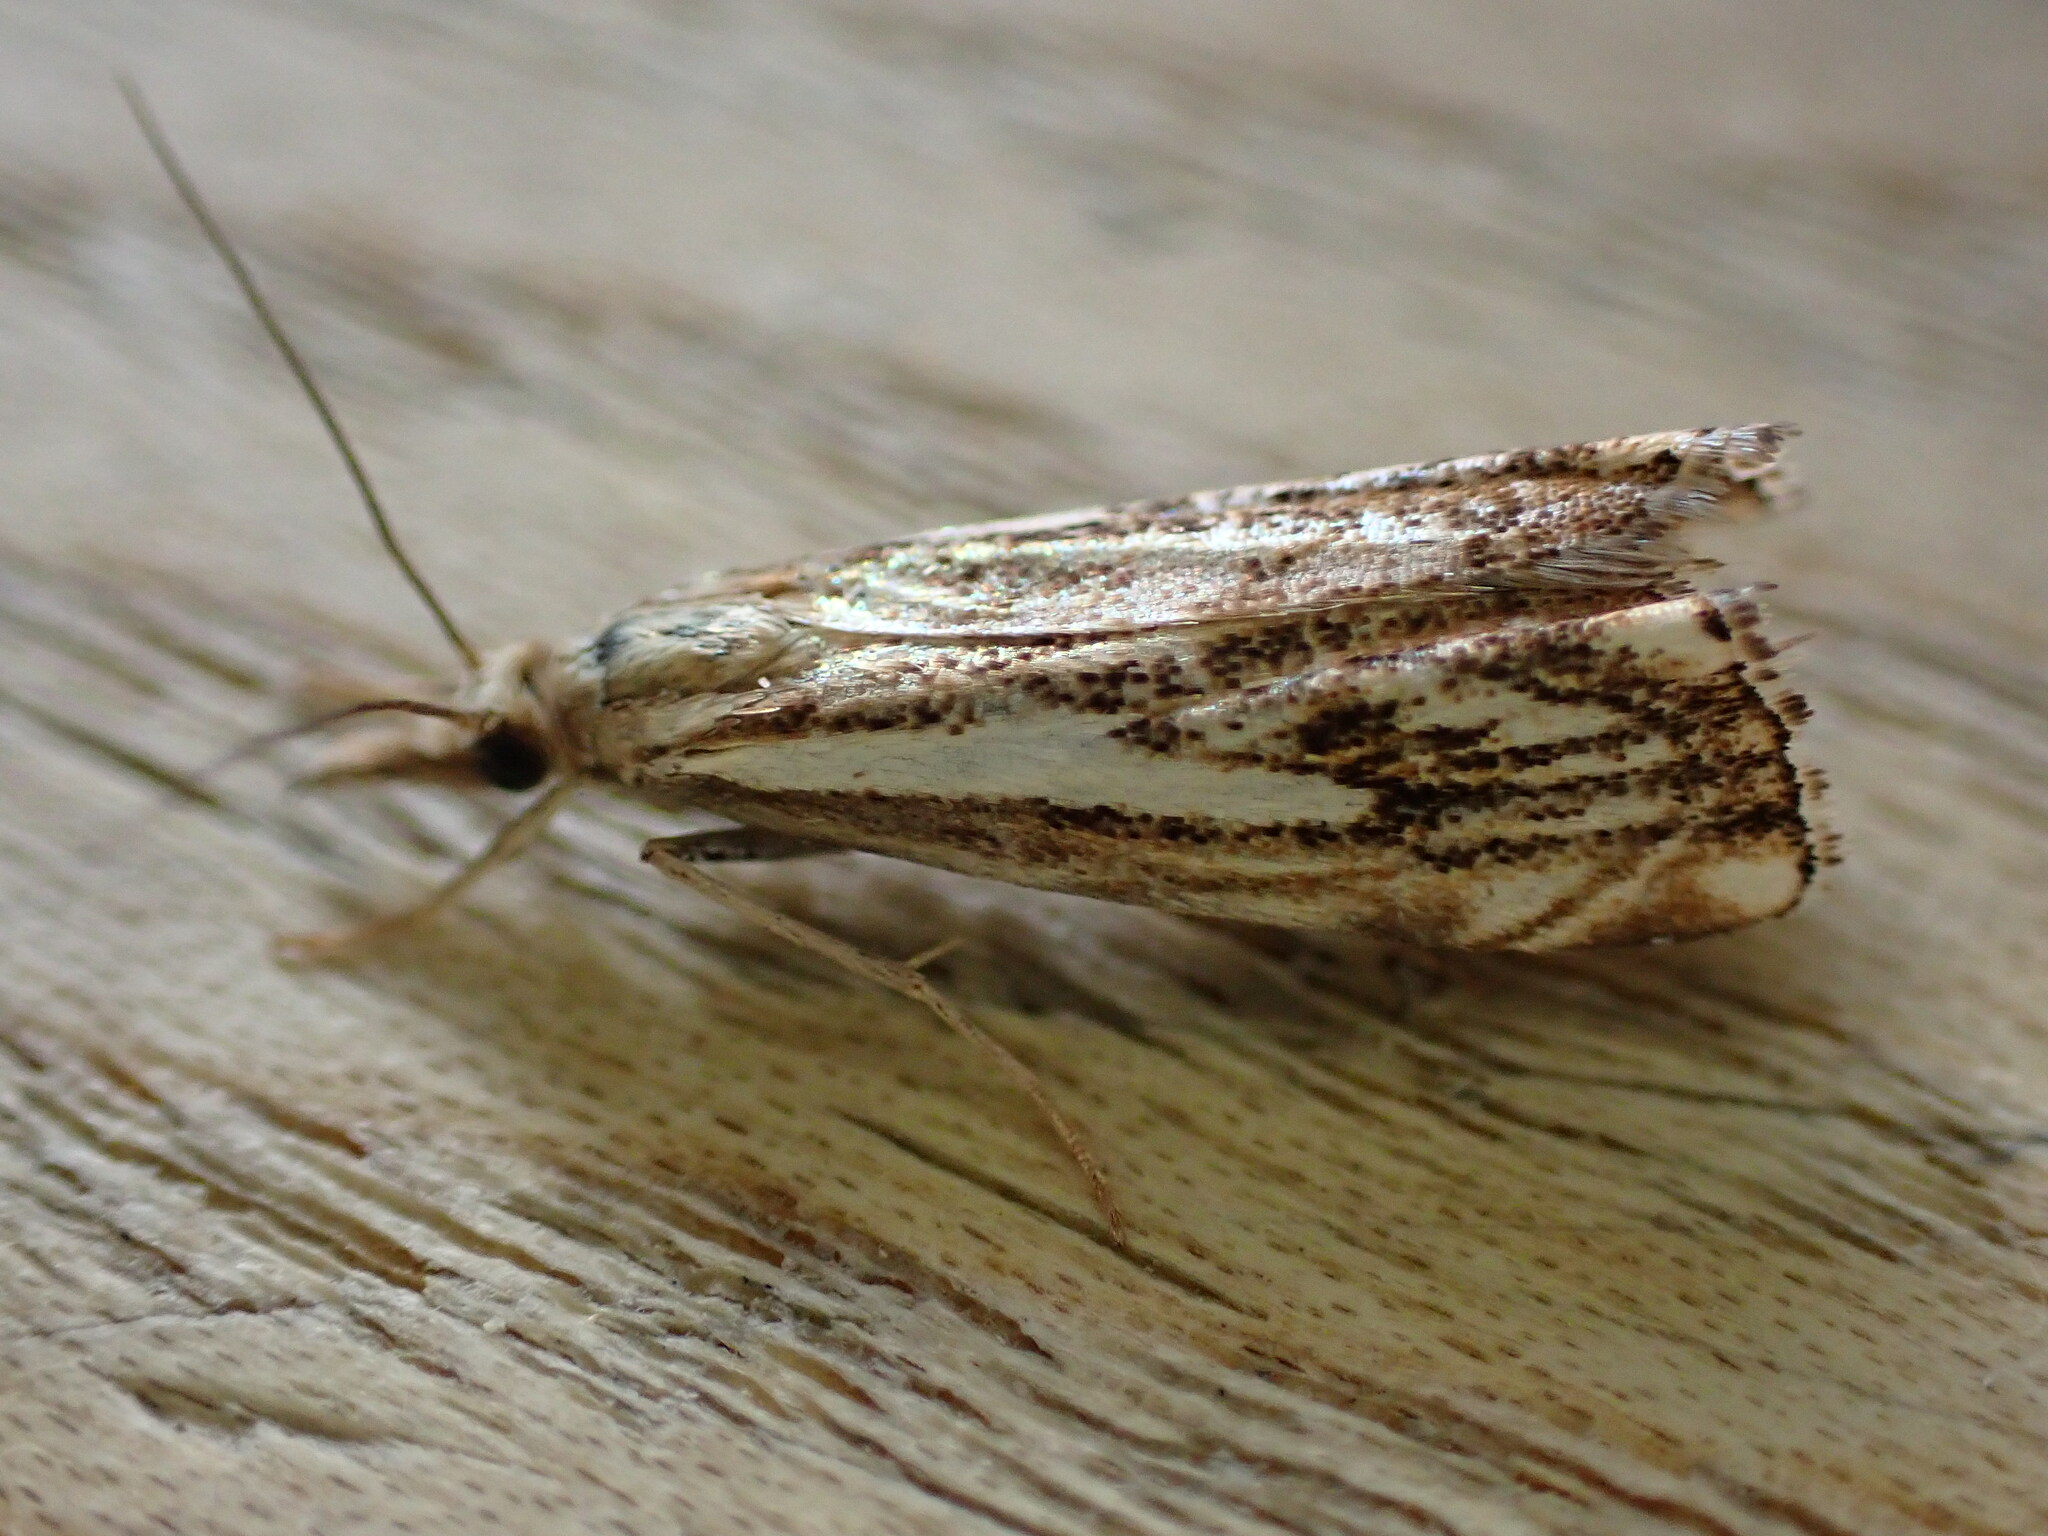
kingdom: Animalia
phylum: Arthropoda
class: Insecta
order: Lepidoptera
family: Crambidae
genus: Catoptria
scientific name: Catoptria falsella
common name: Chequered grass-veneer
